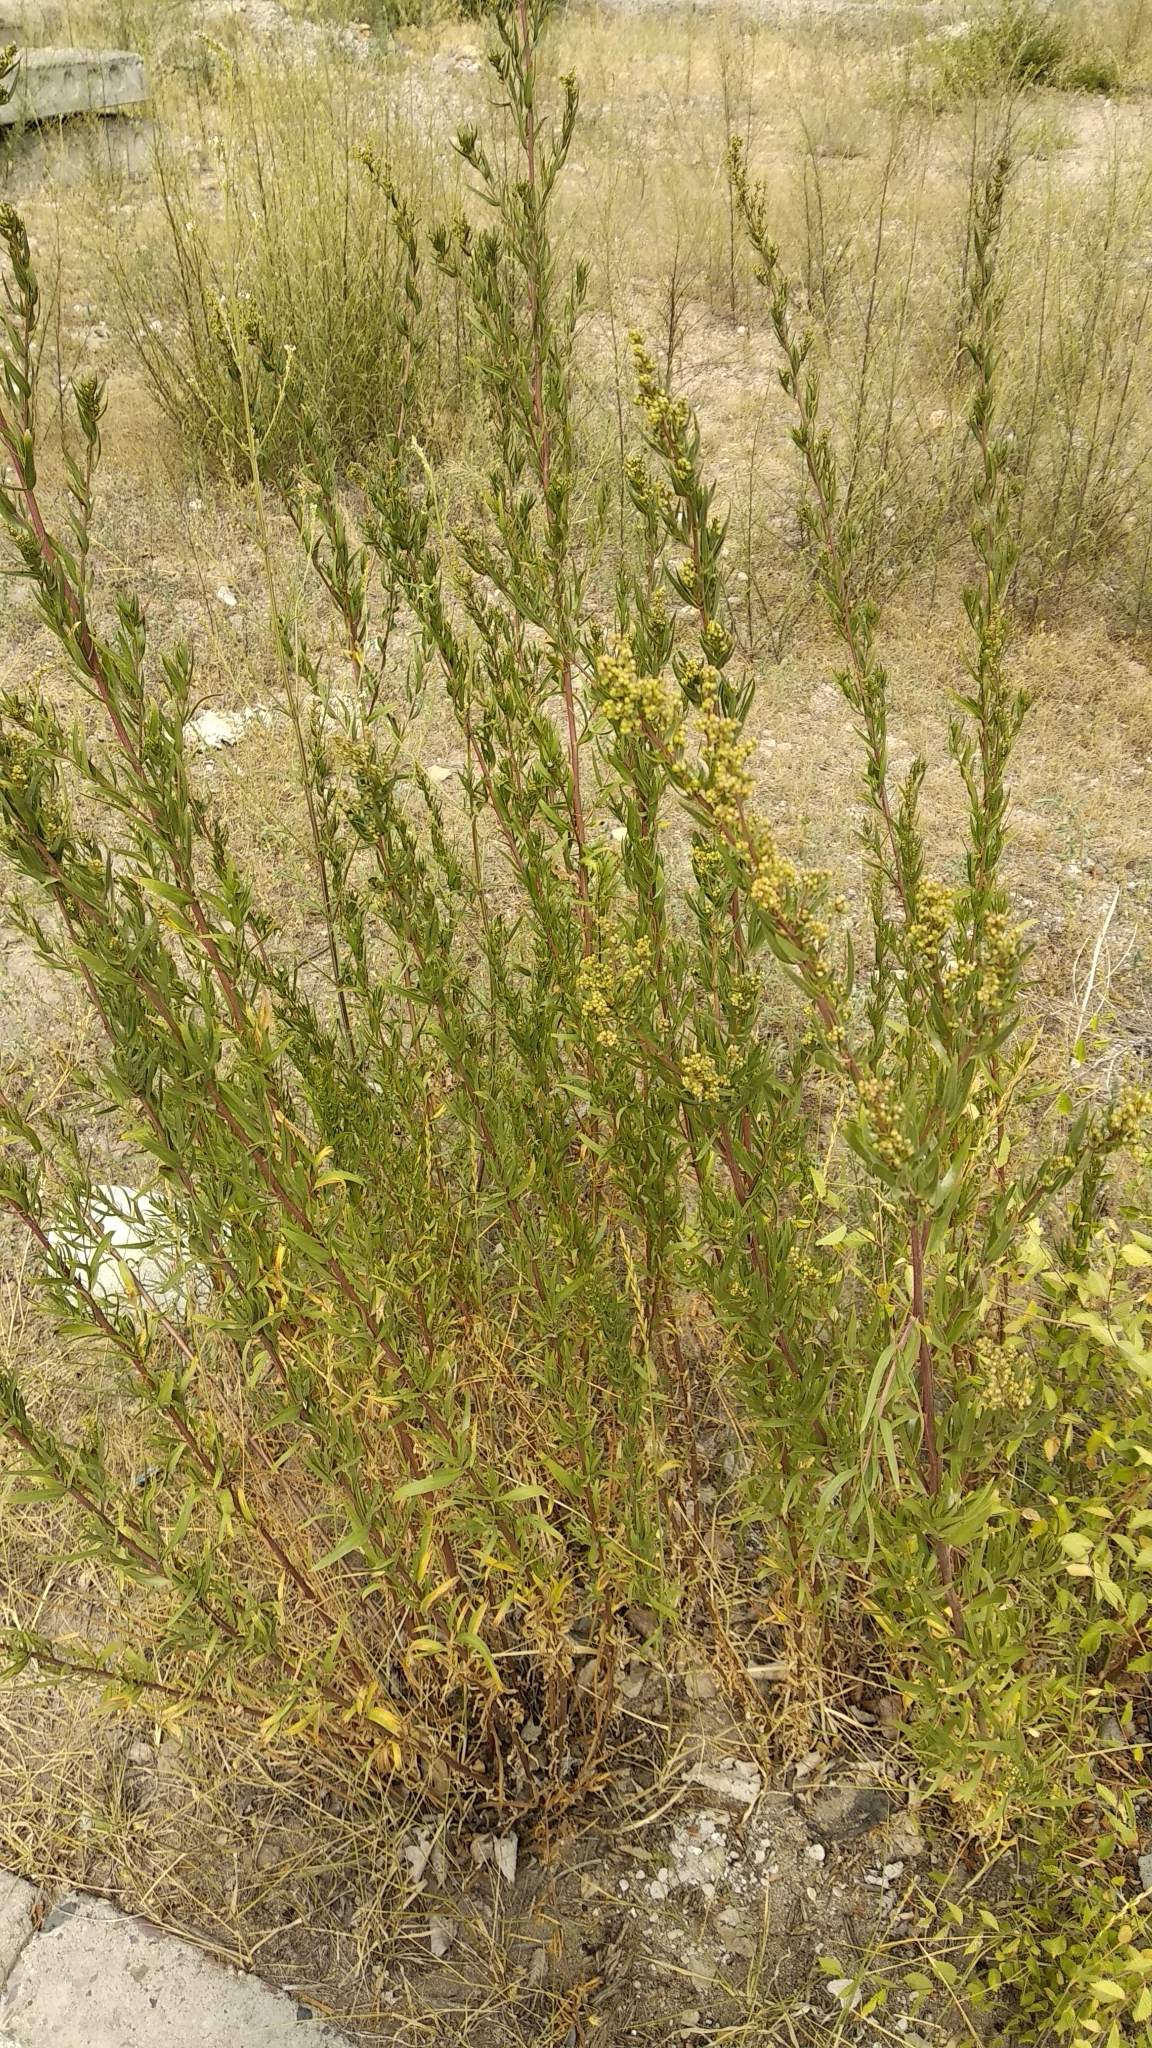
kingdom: Plantae
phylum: Tracheophyta
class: Magnoliopsida
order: Asterales
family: Asteraceae
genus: Artemisia
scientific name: Artemisia dracunculus
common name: Tarragon
